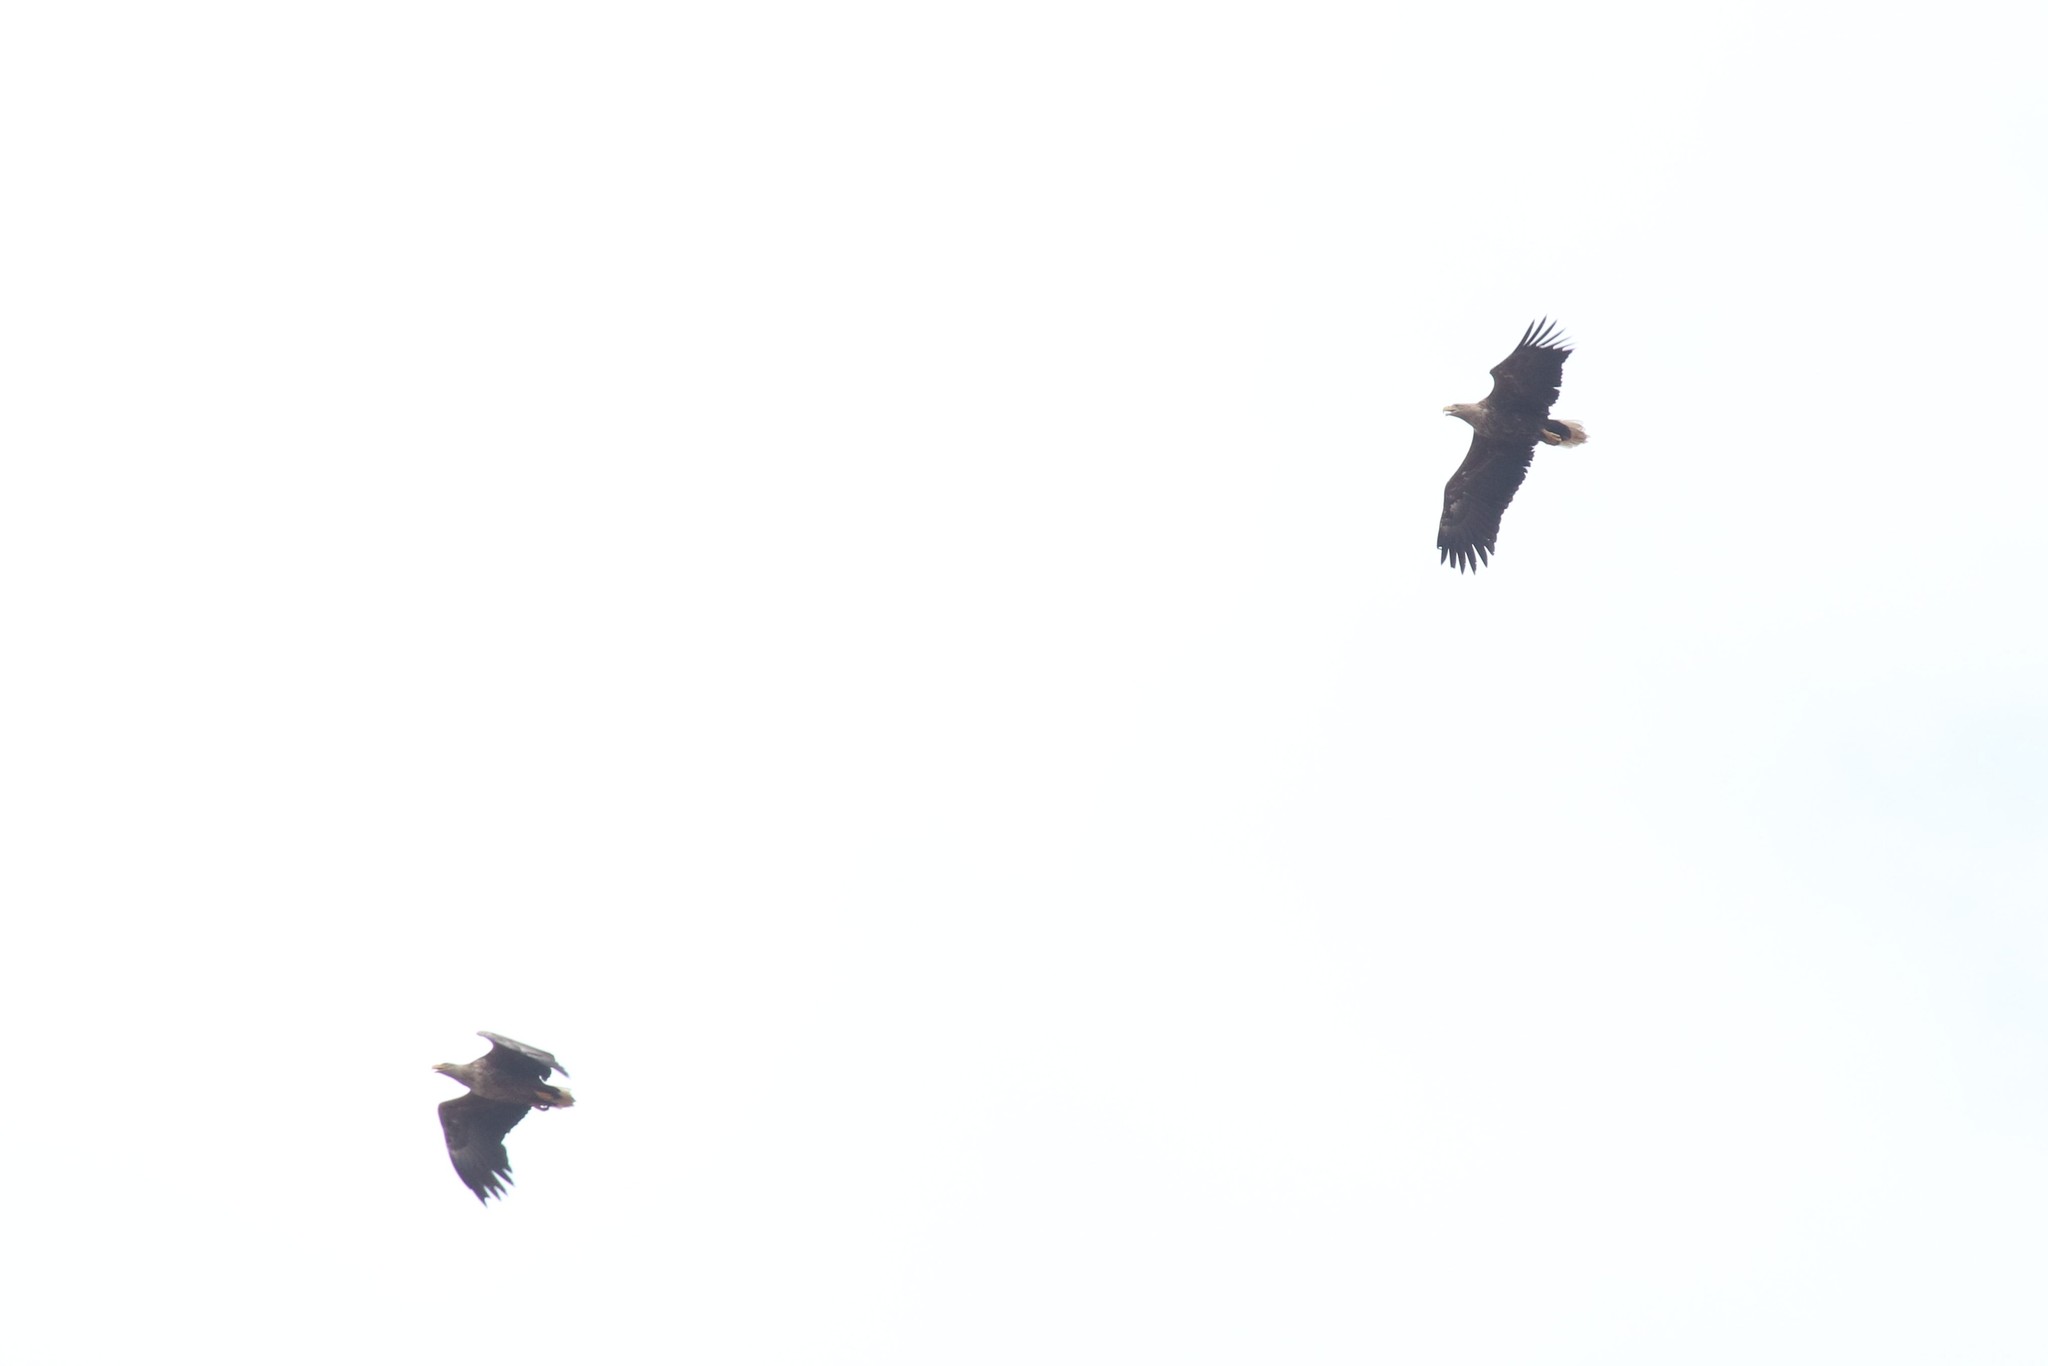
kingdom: Animalia
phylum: Chordata
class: Aves
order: Accipitriformes
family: Accipitridae
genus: Haliaeetus
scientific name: Haliaeetus albicilla
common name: White-tailed eagle
